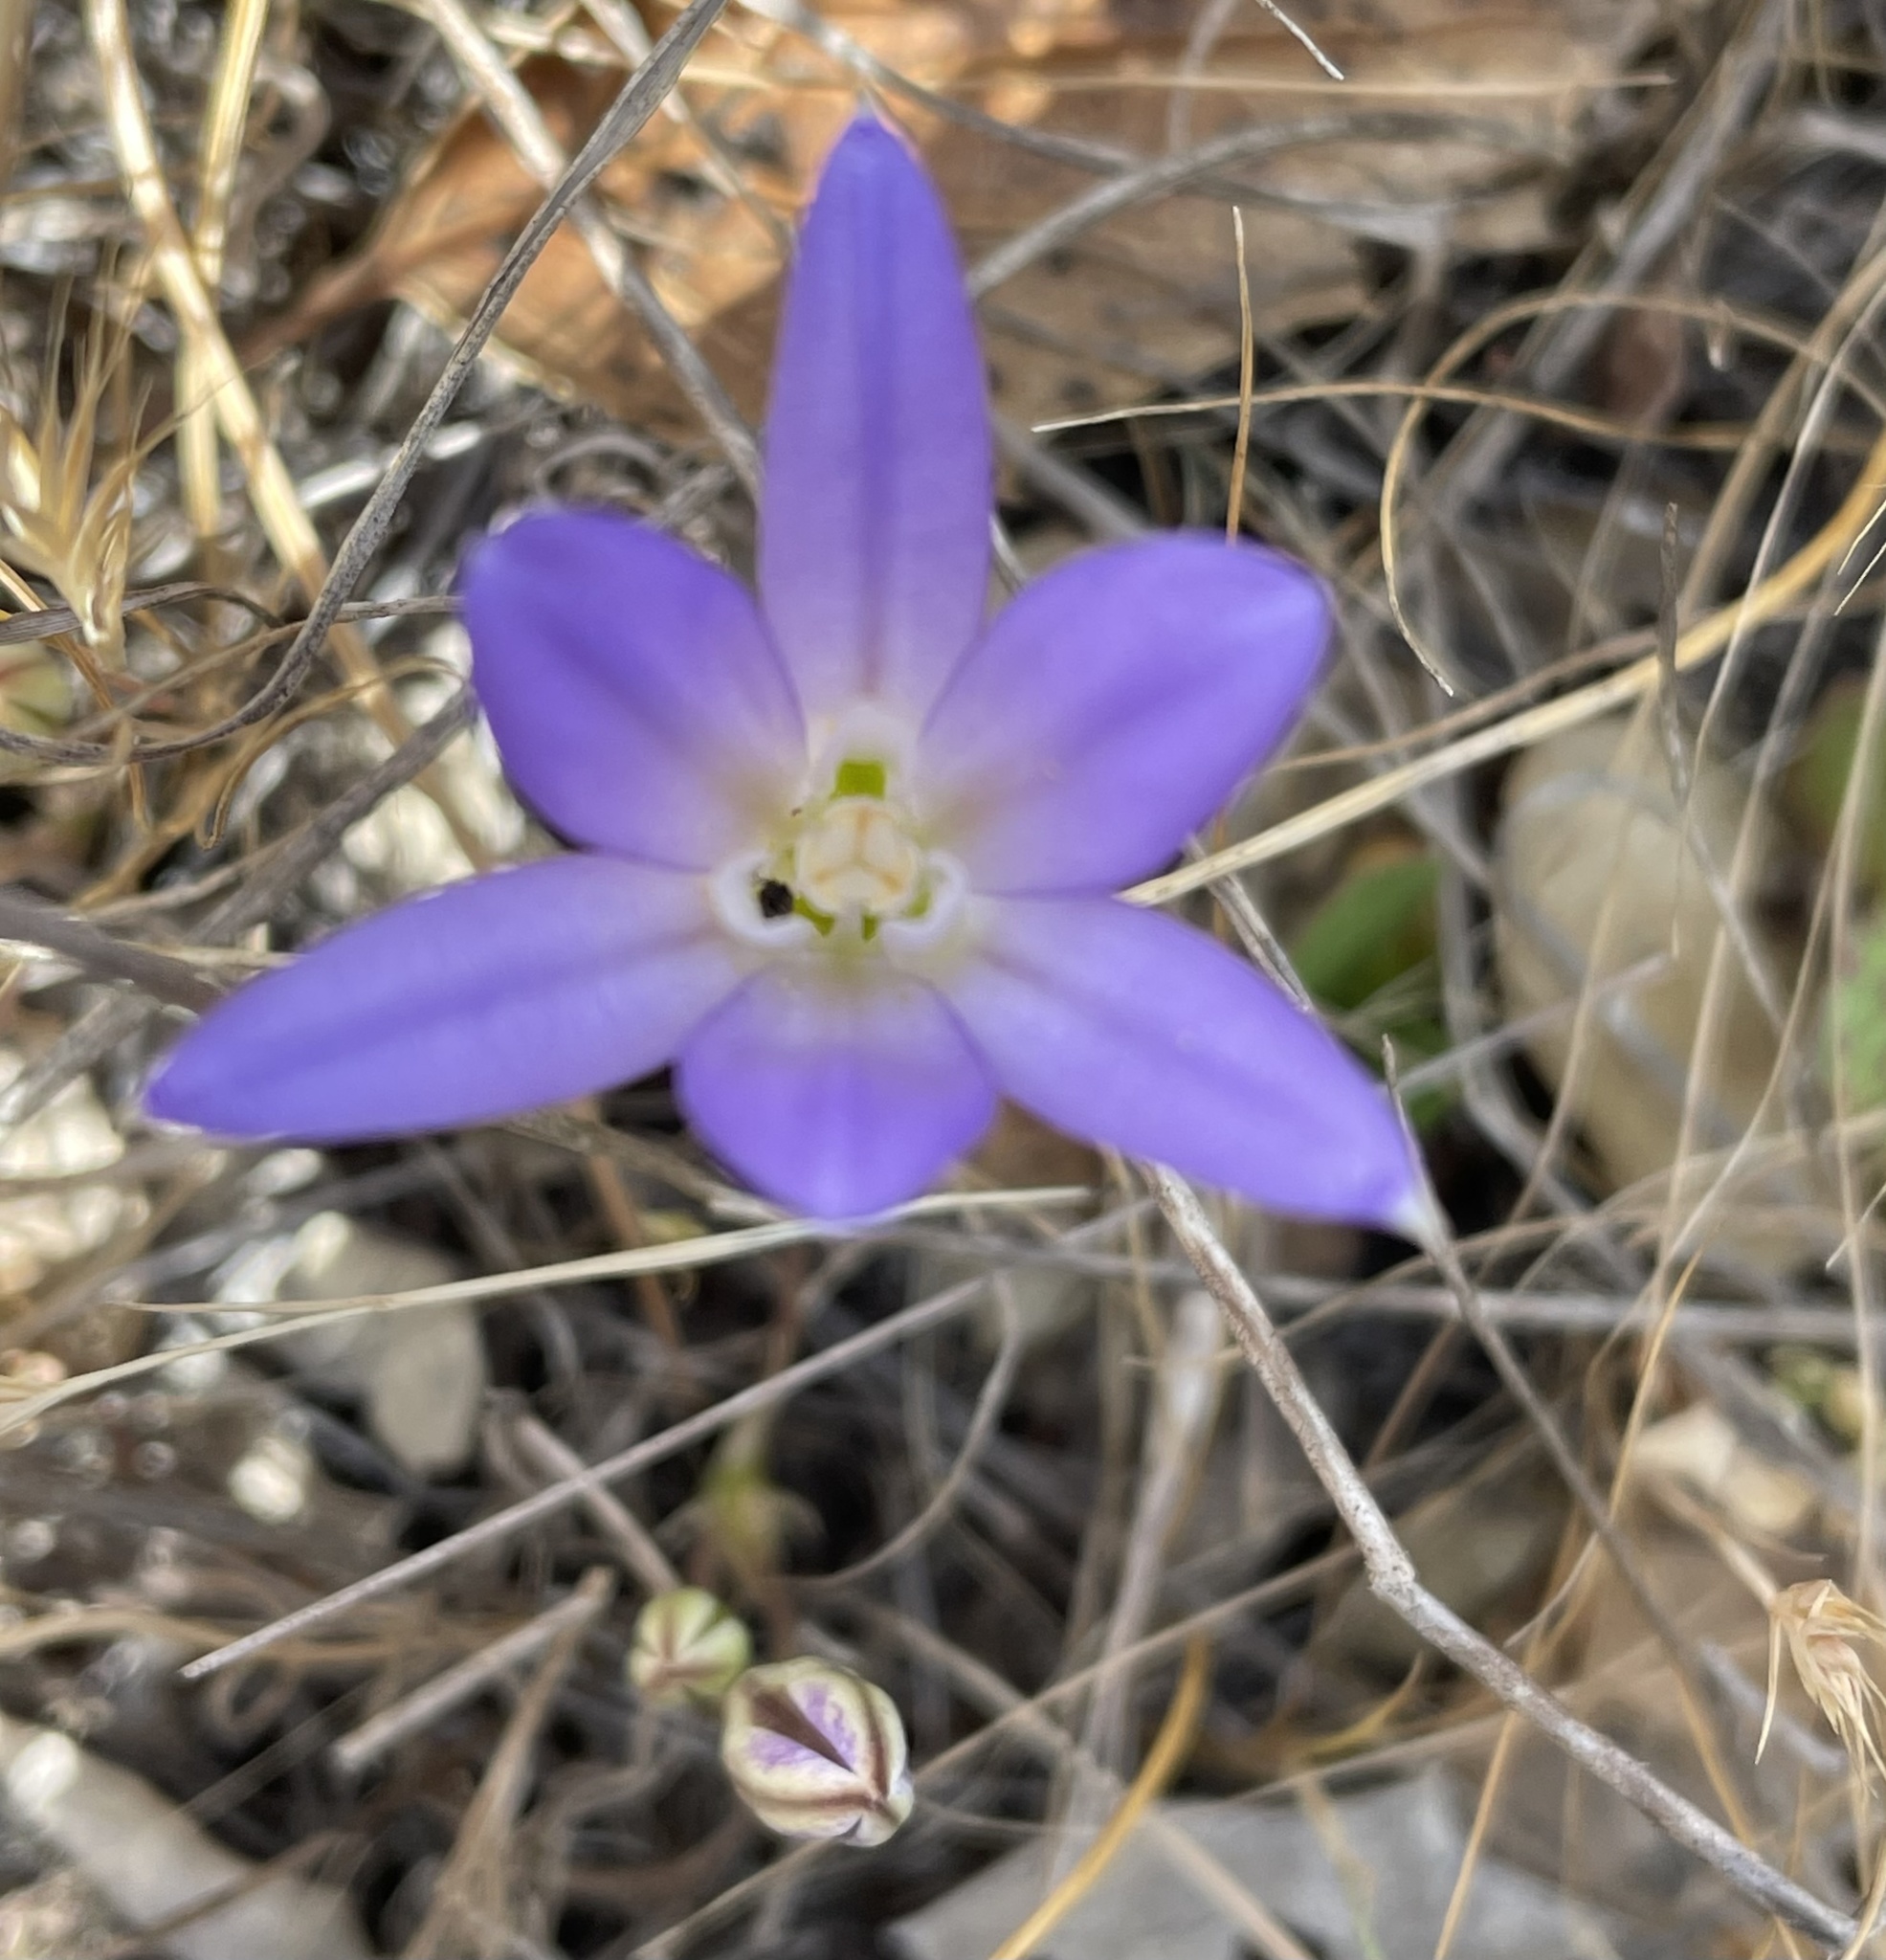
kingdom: Plantae
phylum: Tracheophyta
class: Liliopsida
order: Asparagales
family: Asparagaceae
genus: Brodiaea
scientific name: Brodiaea terrestris
